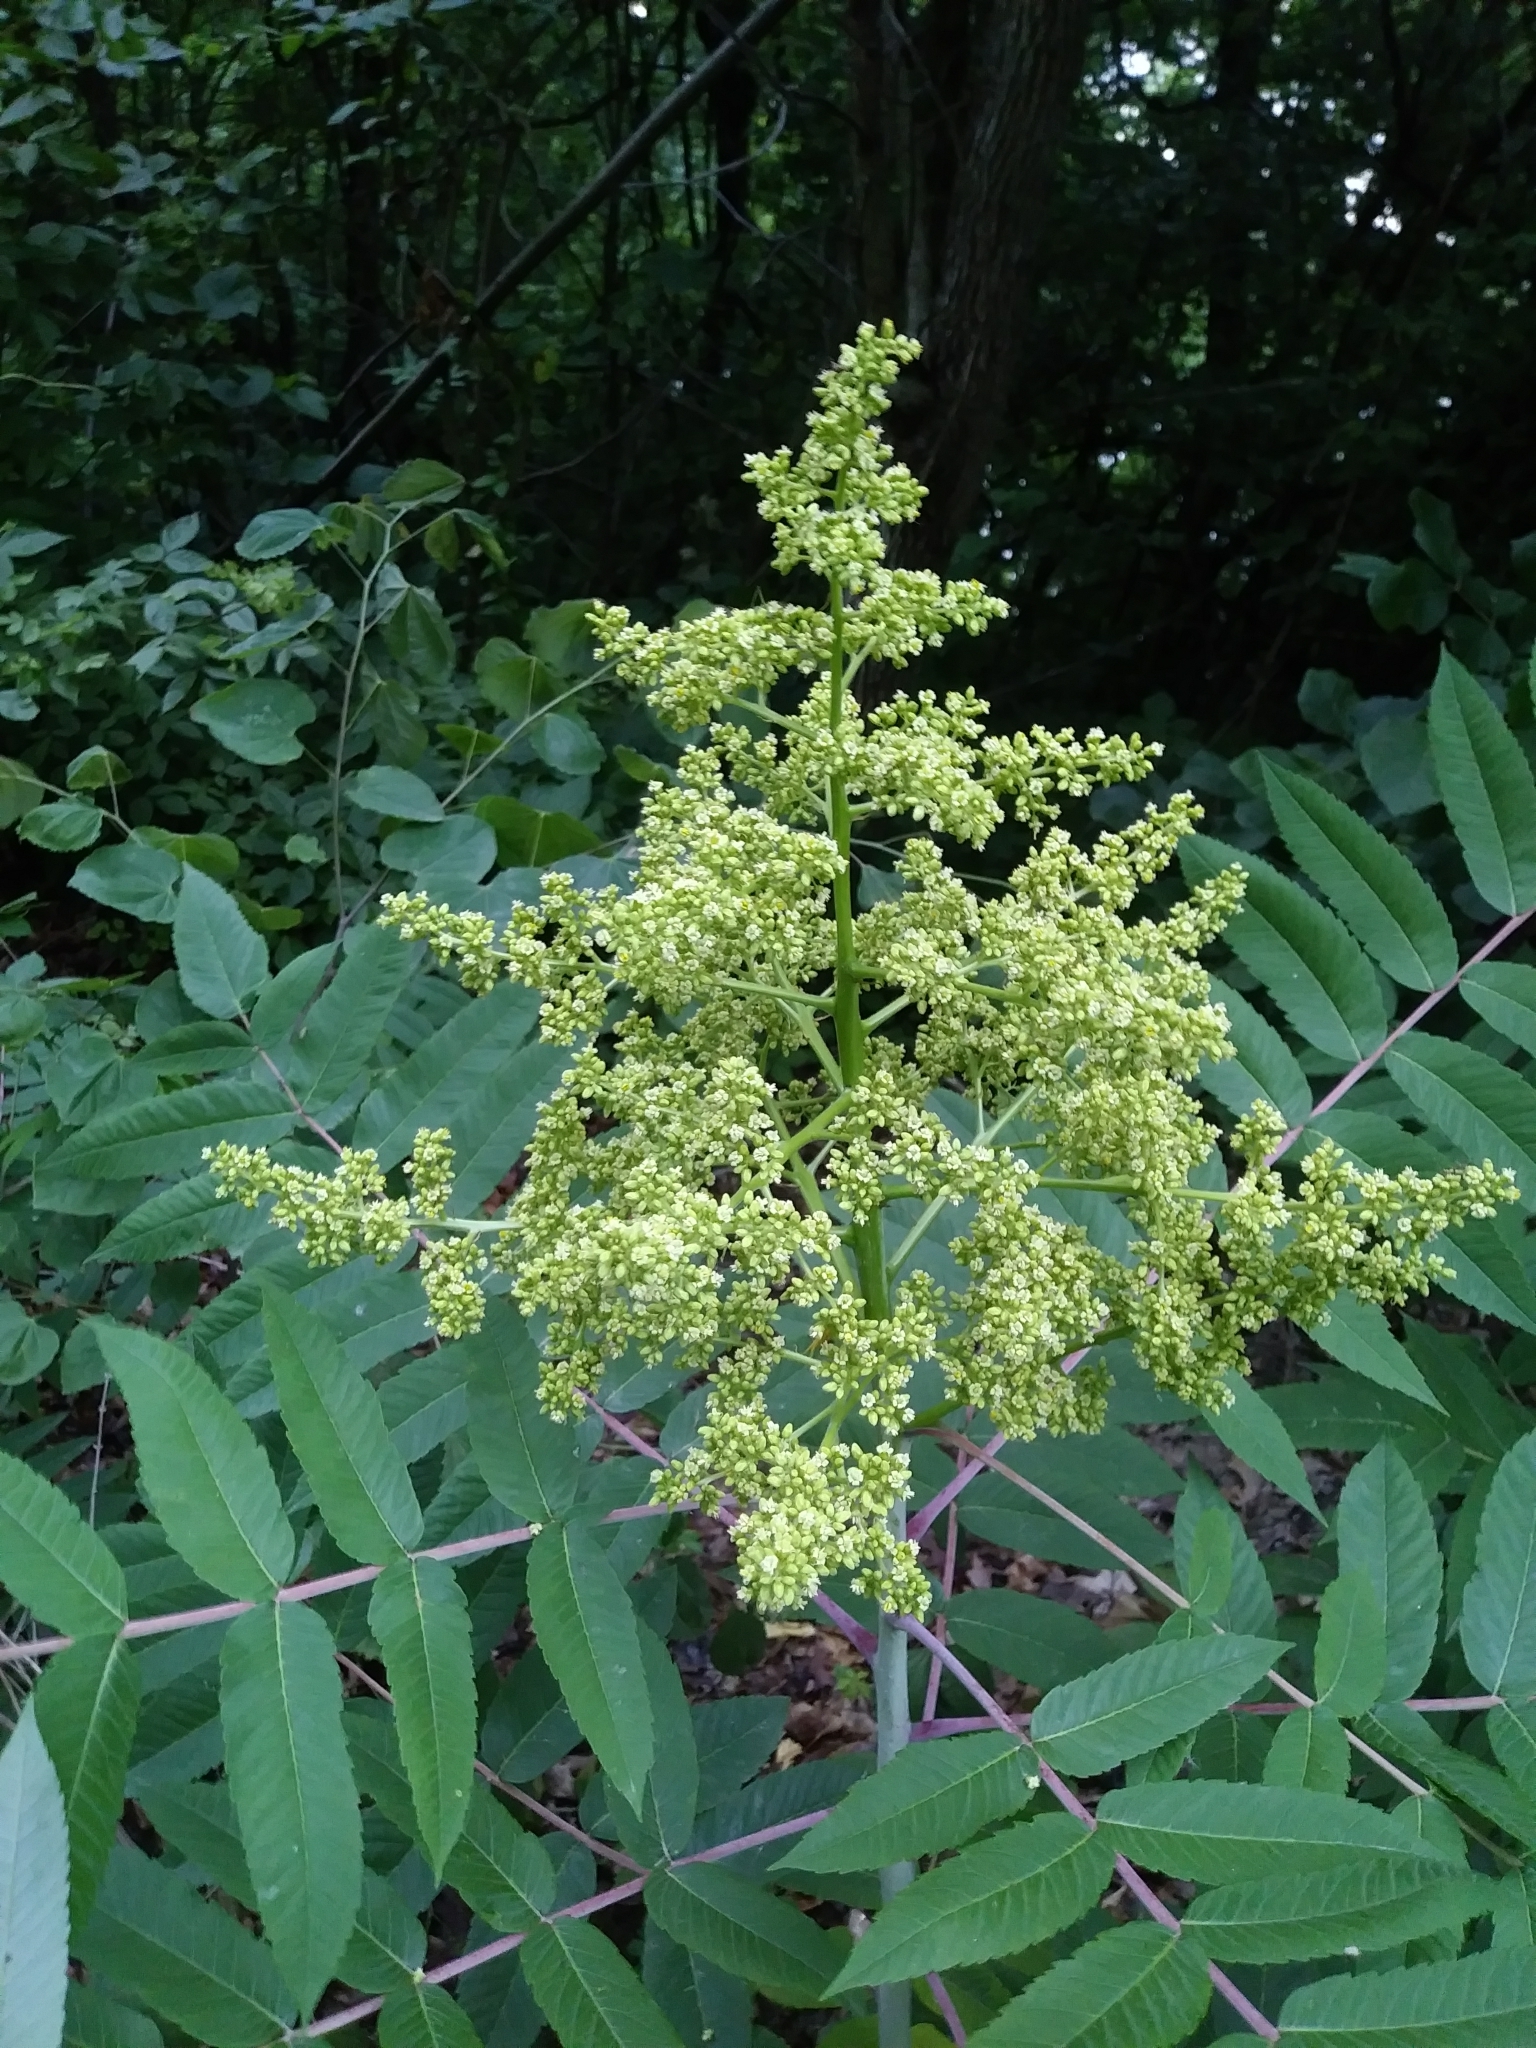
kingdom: Plantae
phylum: Tracheophyta
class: Magnoliopsida
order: Sapindales
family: Anacardiaceae
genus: Rhus
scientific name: Rhus glabra
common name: Scarlet sumac
